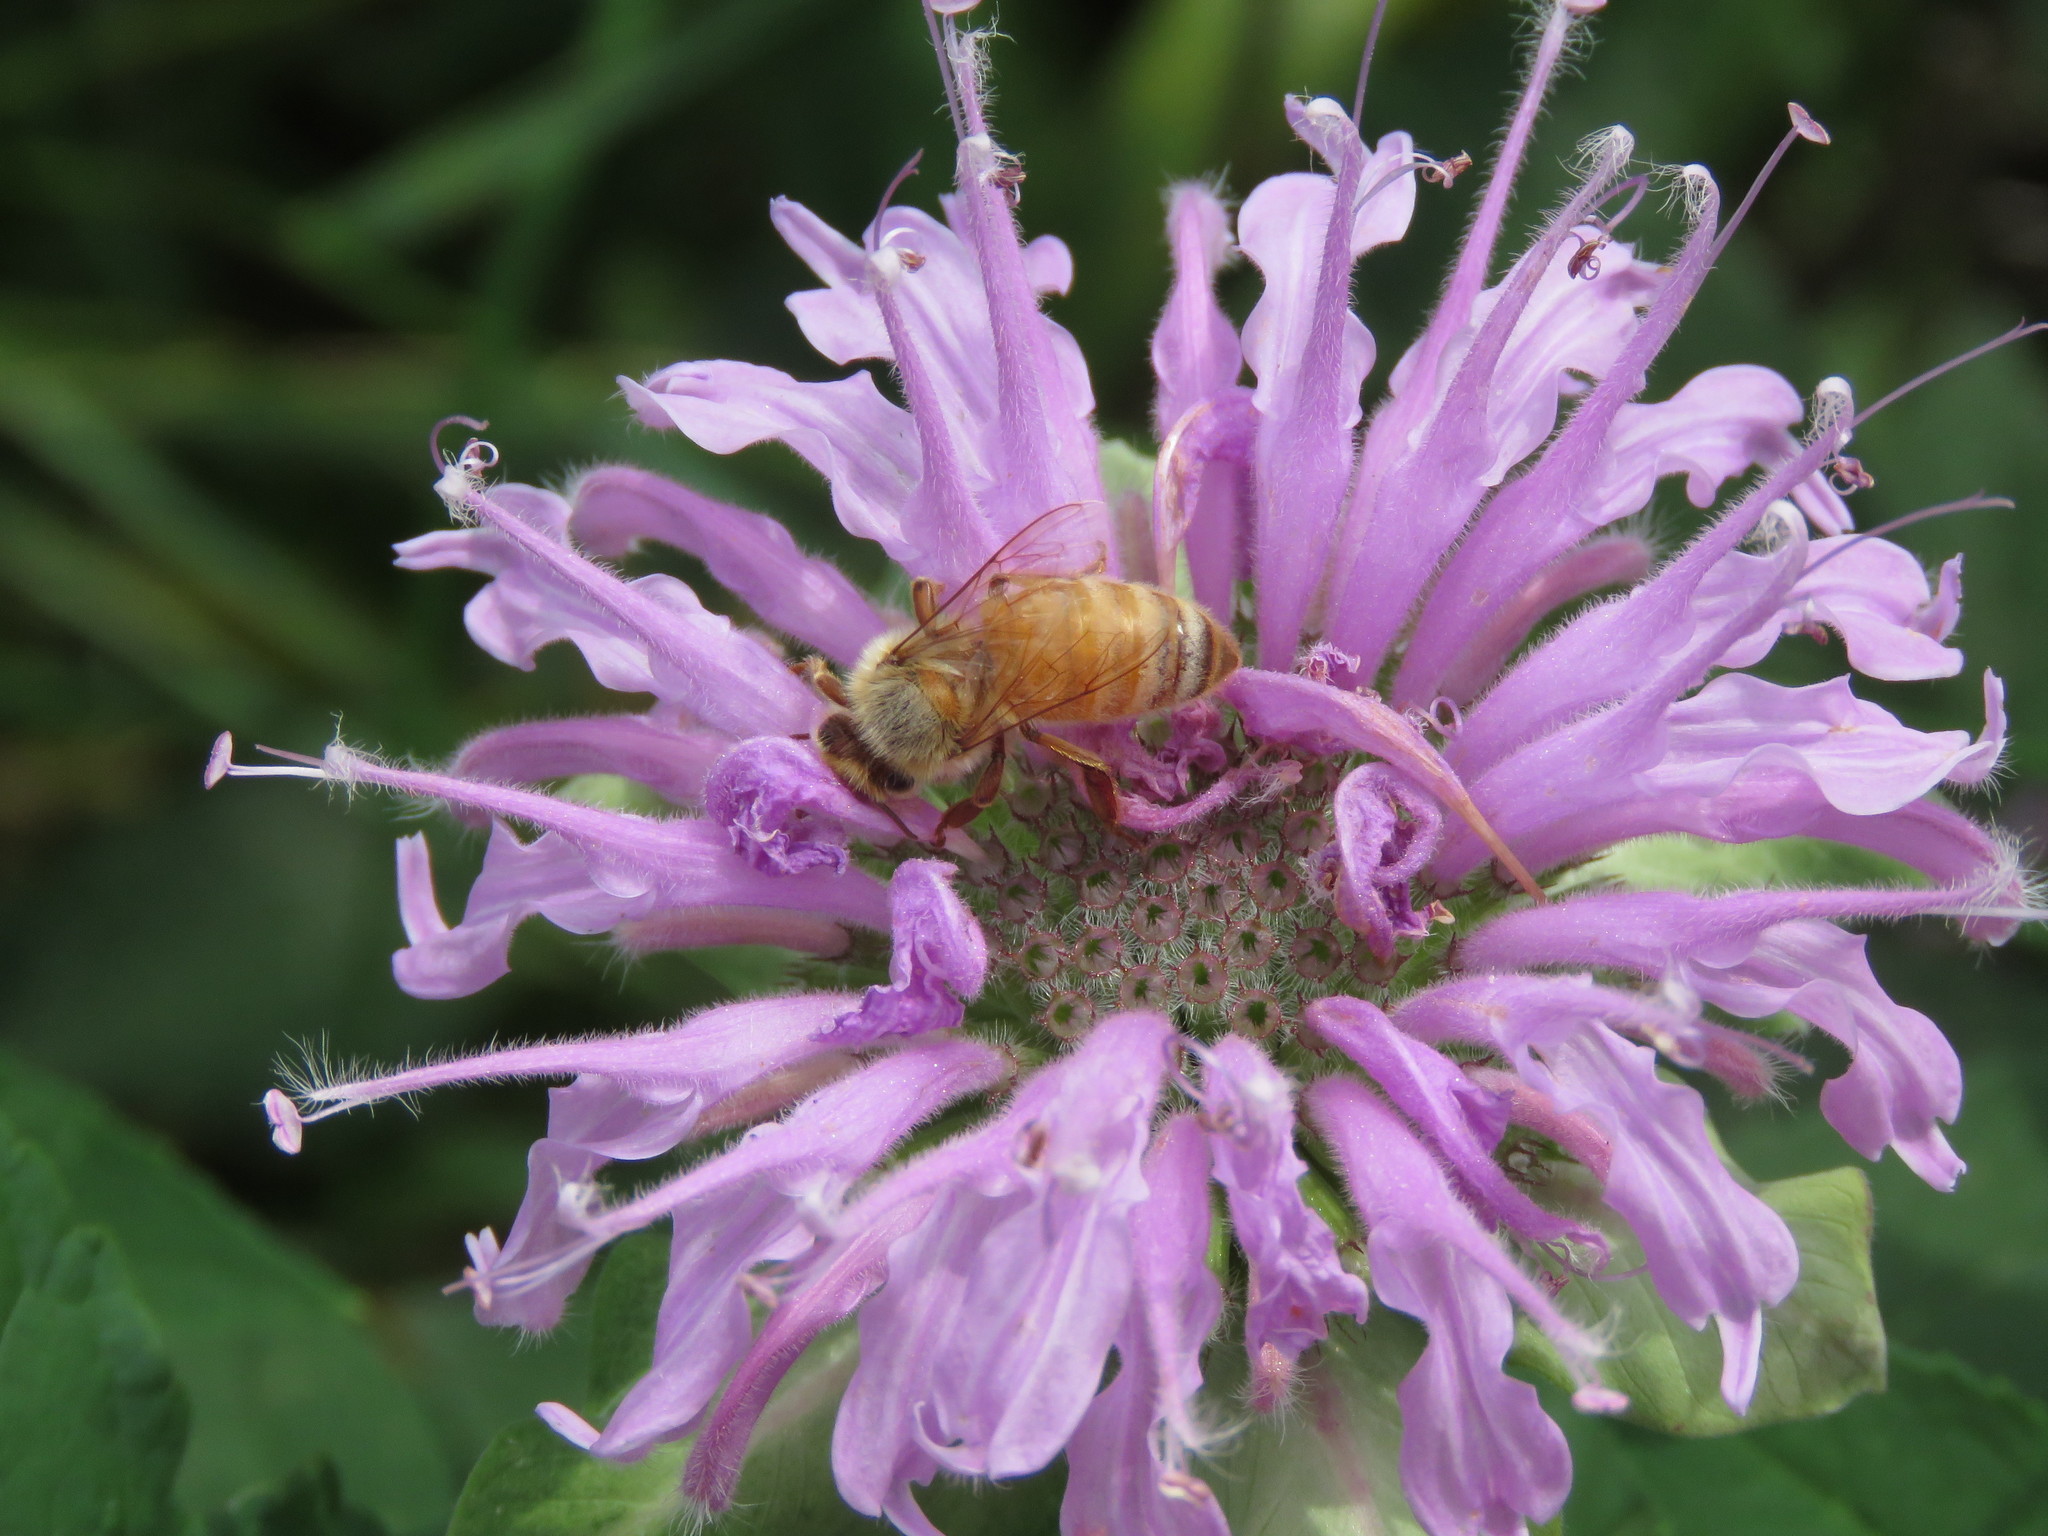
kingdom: Animalia
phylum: Arthropoda
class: Insecta
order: Hymenoptera
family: Apidae
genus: Apis
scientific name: Apis mellifera
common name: Honey bee
